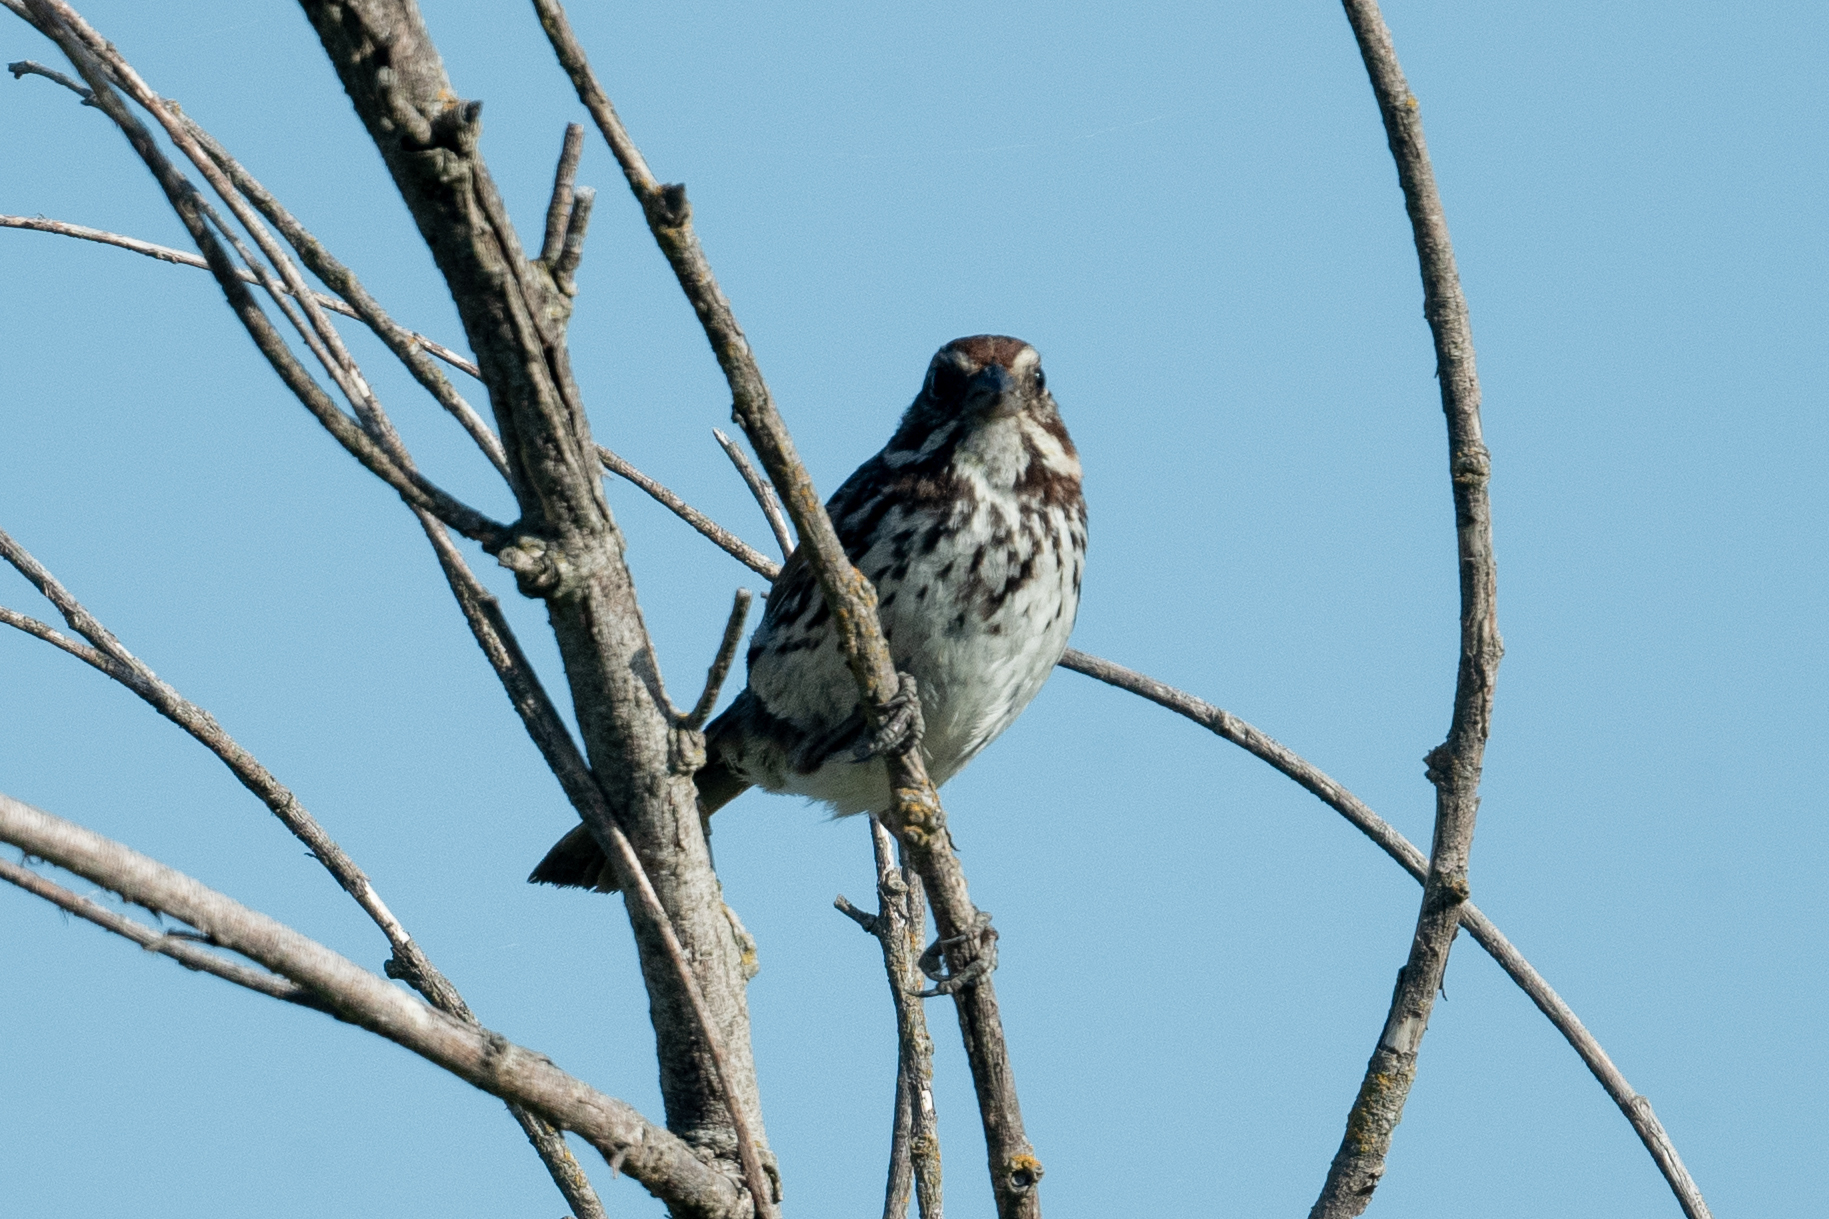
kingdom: Animalia
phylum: Chordata
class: Aves
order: Passeriformes
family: Passerellidae
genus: Melospiza
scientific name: Melospiza melodia
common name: Song sparrow
